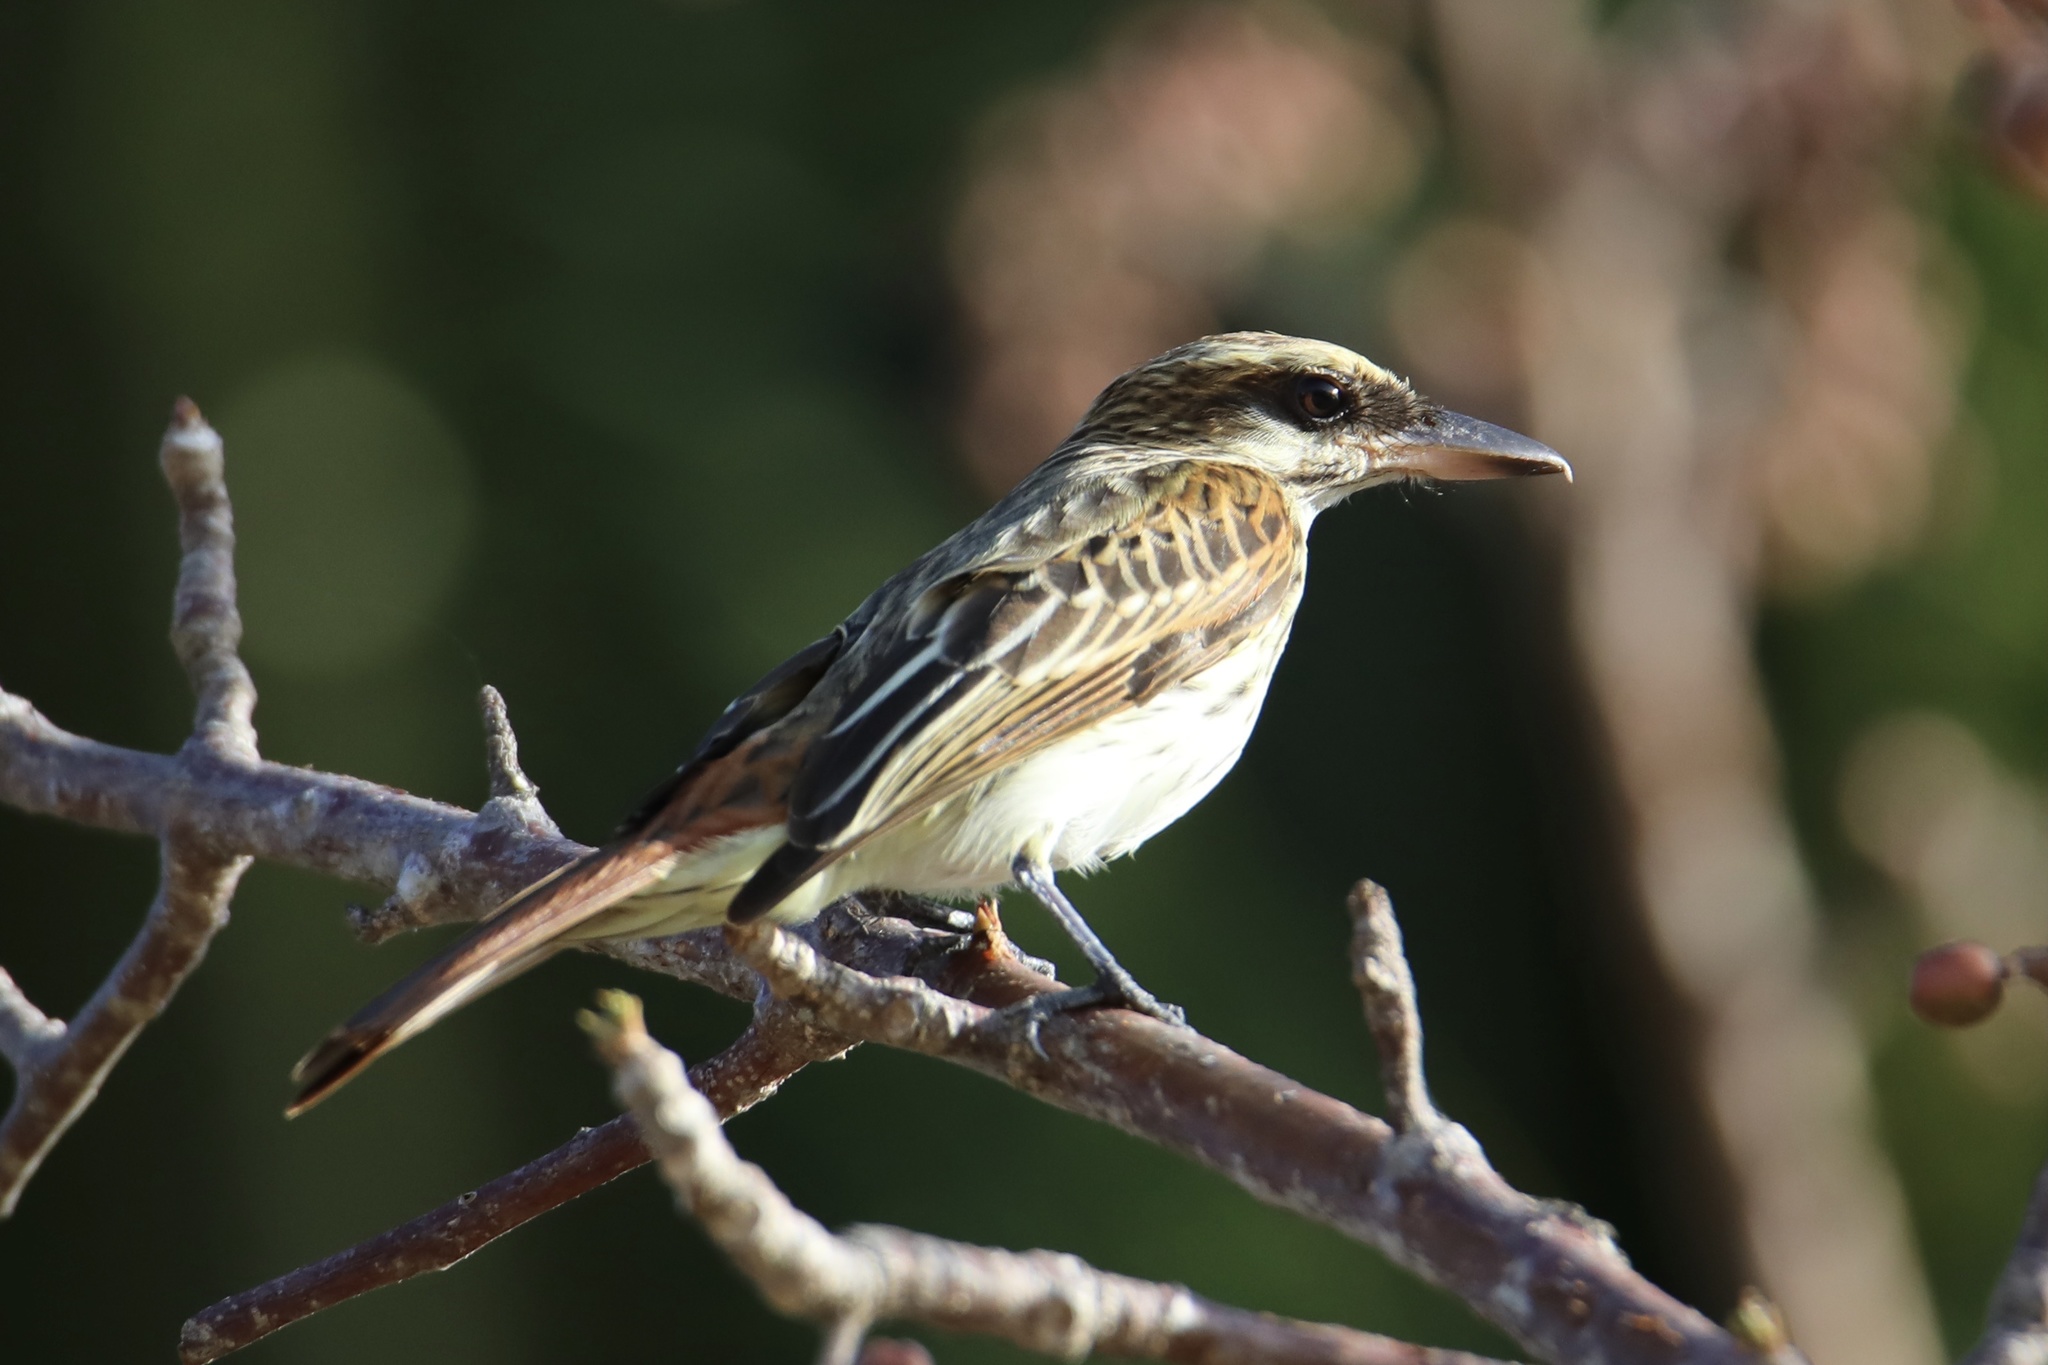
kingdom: Animalia
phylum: Chordata
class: Aves
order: Passeriformes
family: Tyrannidae
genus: Myiodynastes
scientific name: Myiodynastes maculatus
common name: Streaked flycatcher
